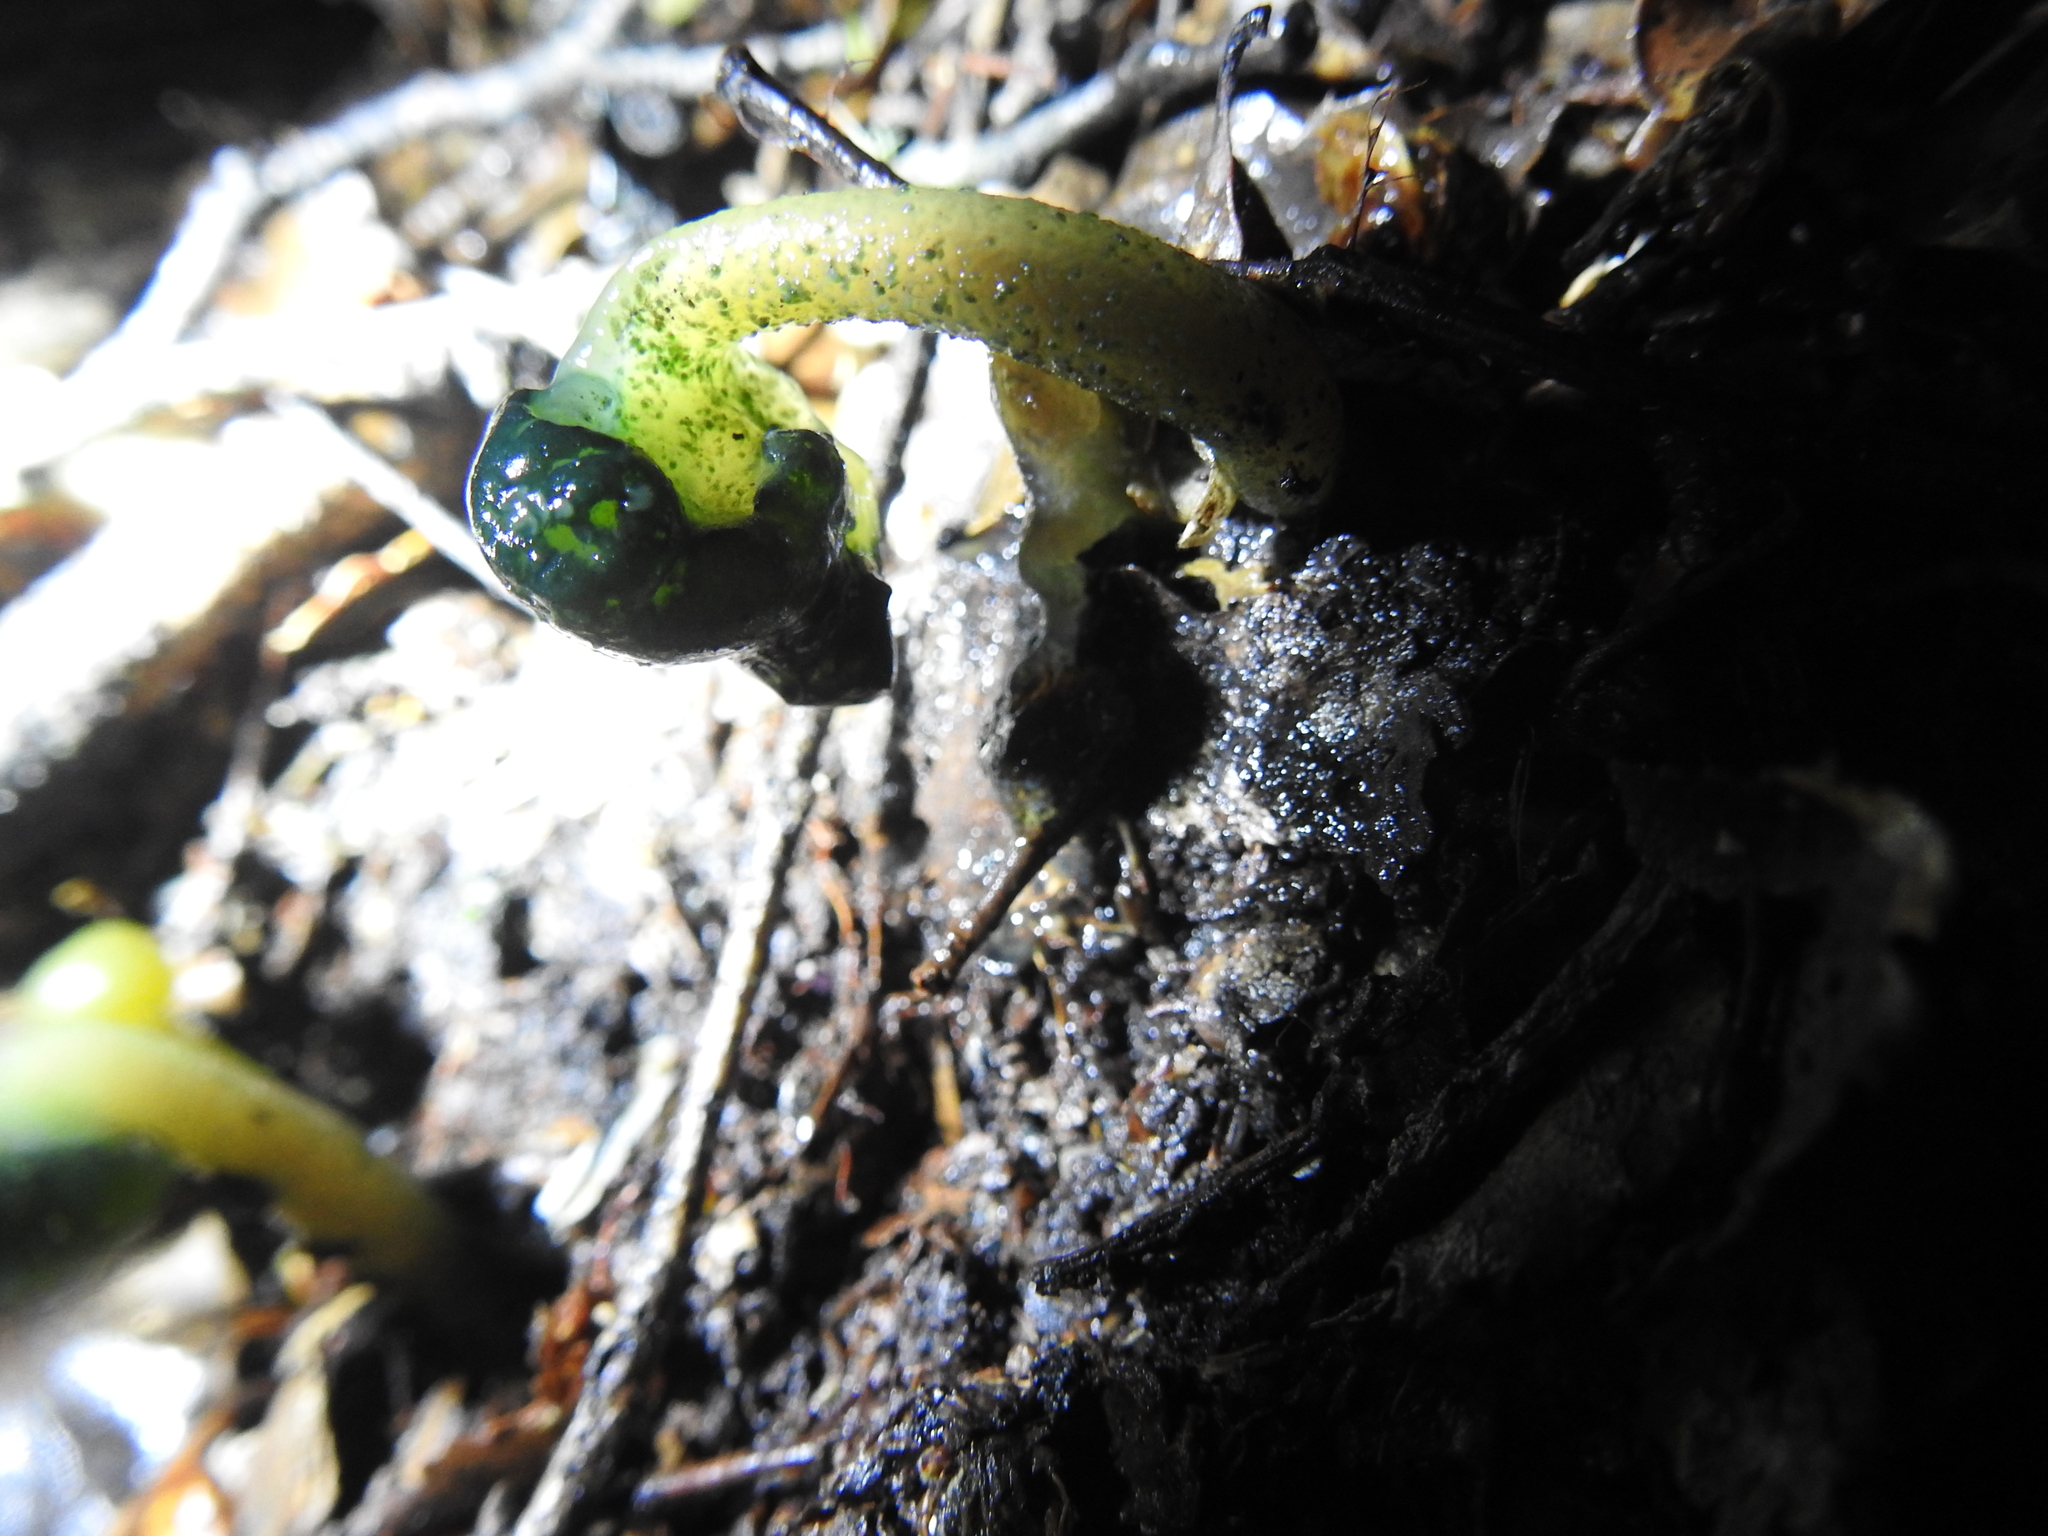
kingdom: Fungi
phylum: Ascomycota
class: Leotiomycetes
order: Leotiales
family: Leotiaceae
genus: Leotia
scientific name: Leotia lubrica
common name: Jellybaby
